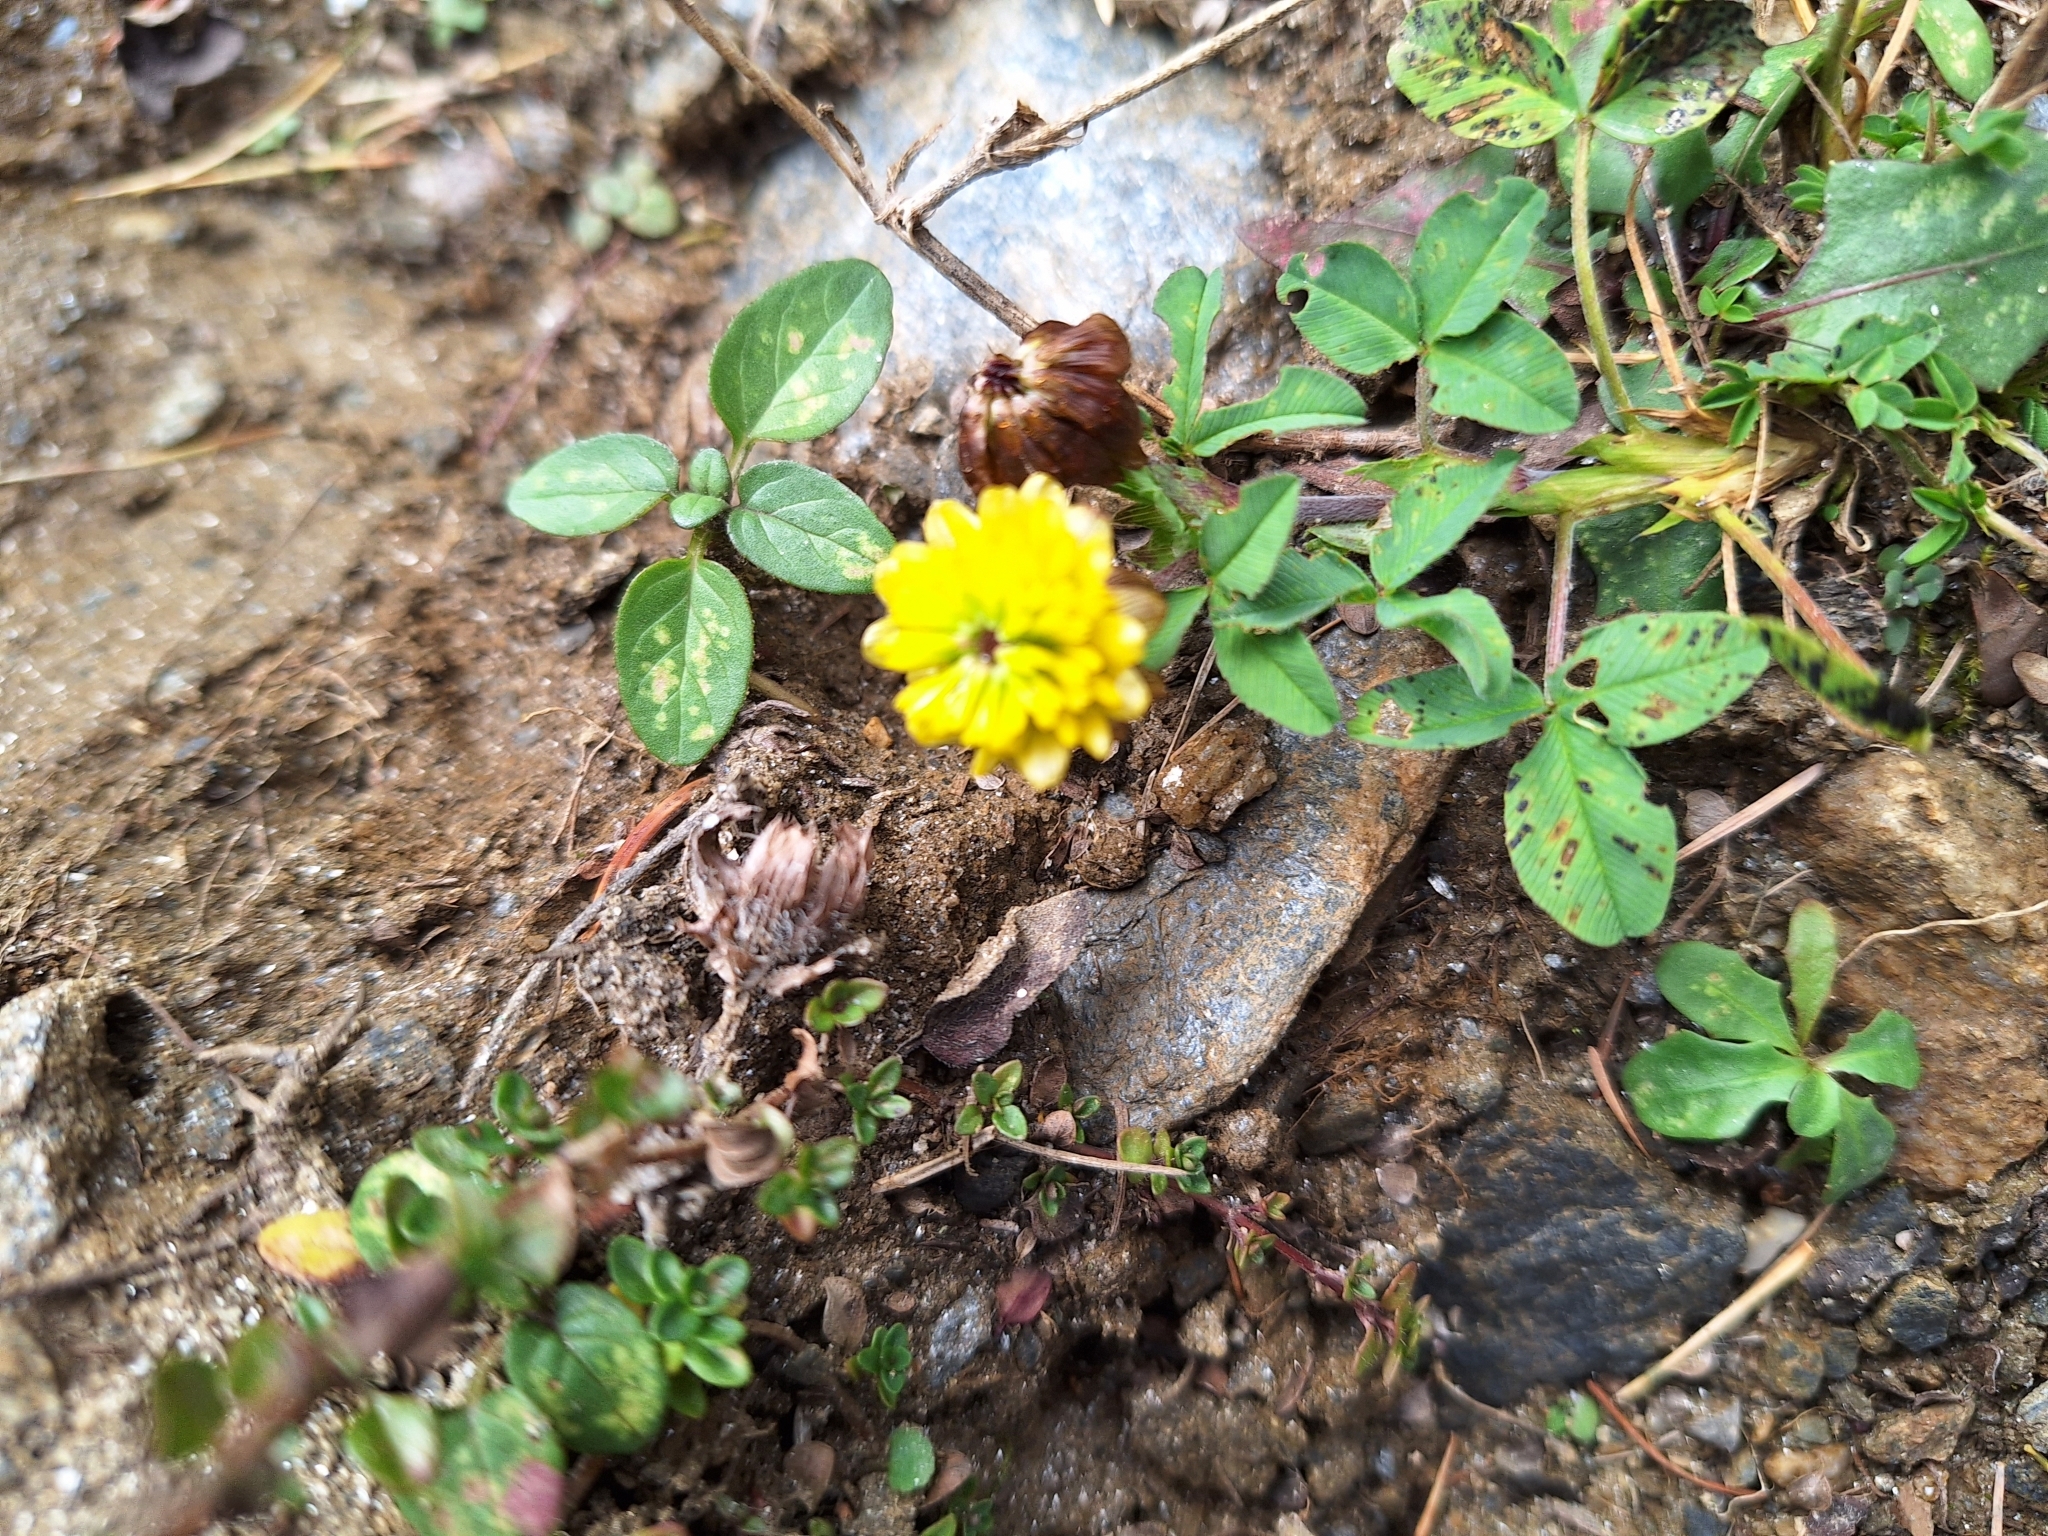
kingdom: Plantae
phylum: Tracheophyta
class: Magnoliopsida
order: Fabales
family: Fabaceae
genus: Trifolium
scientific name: Trifolium badium
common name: Brown clover
